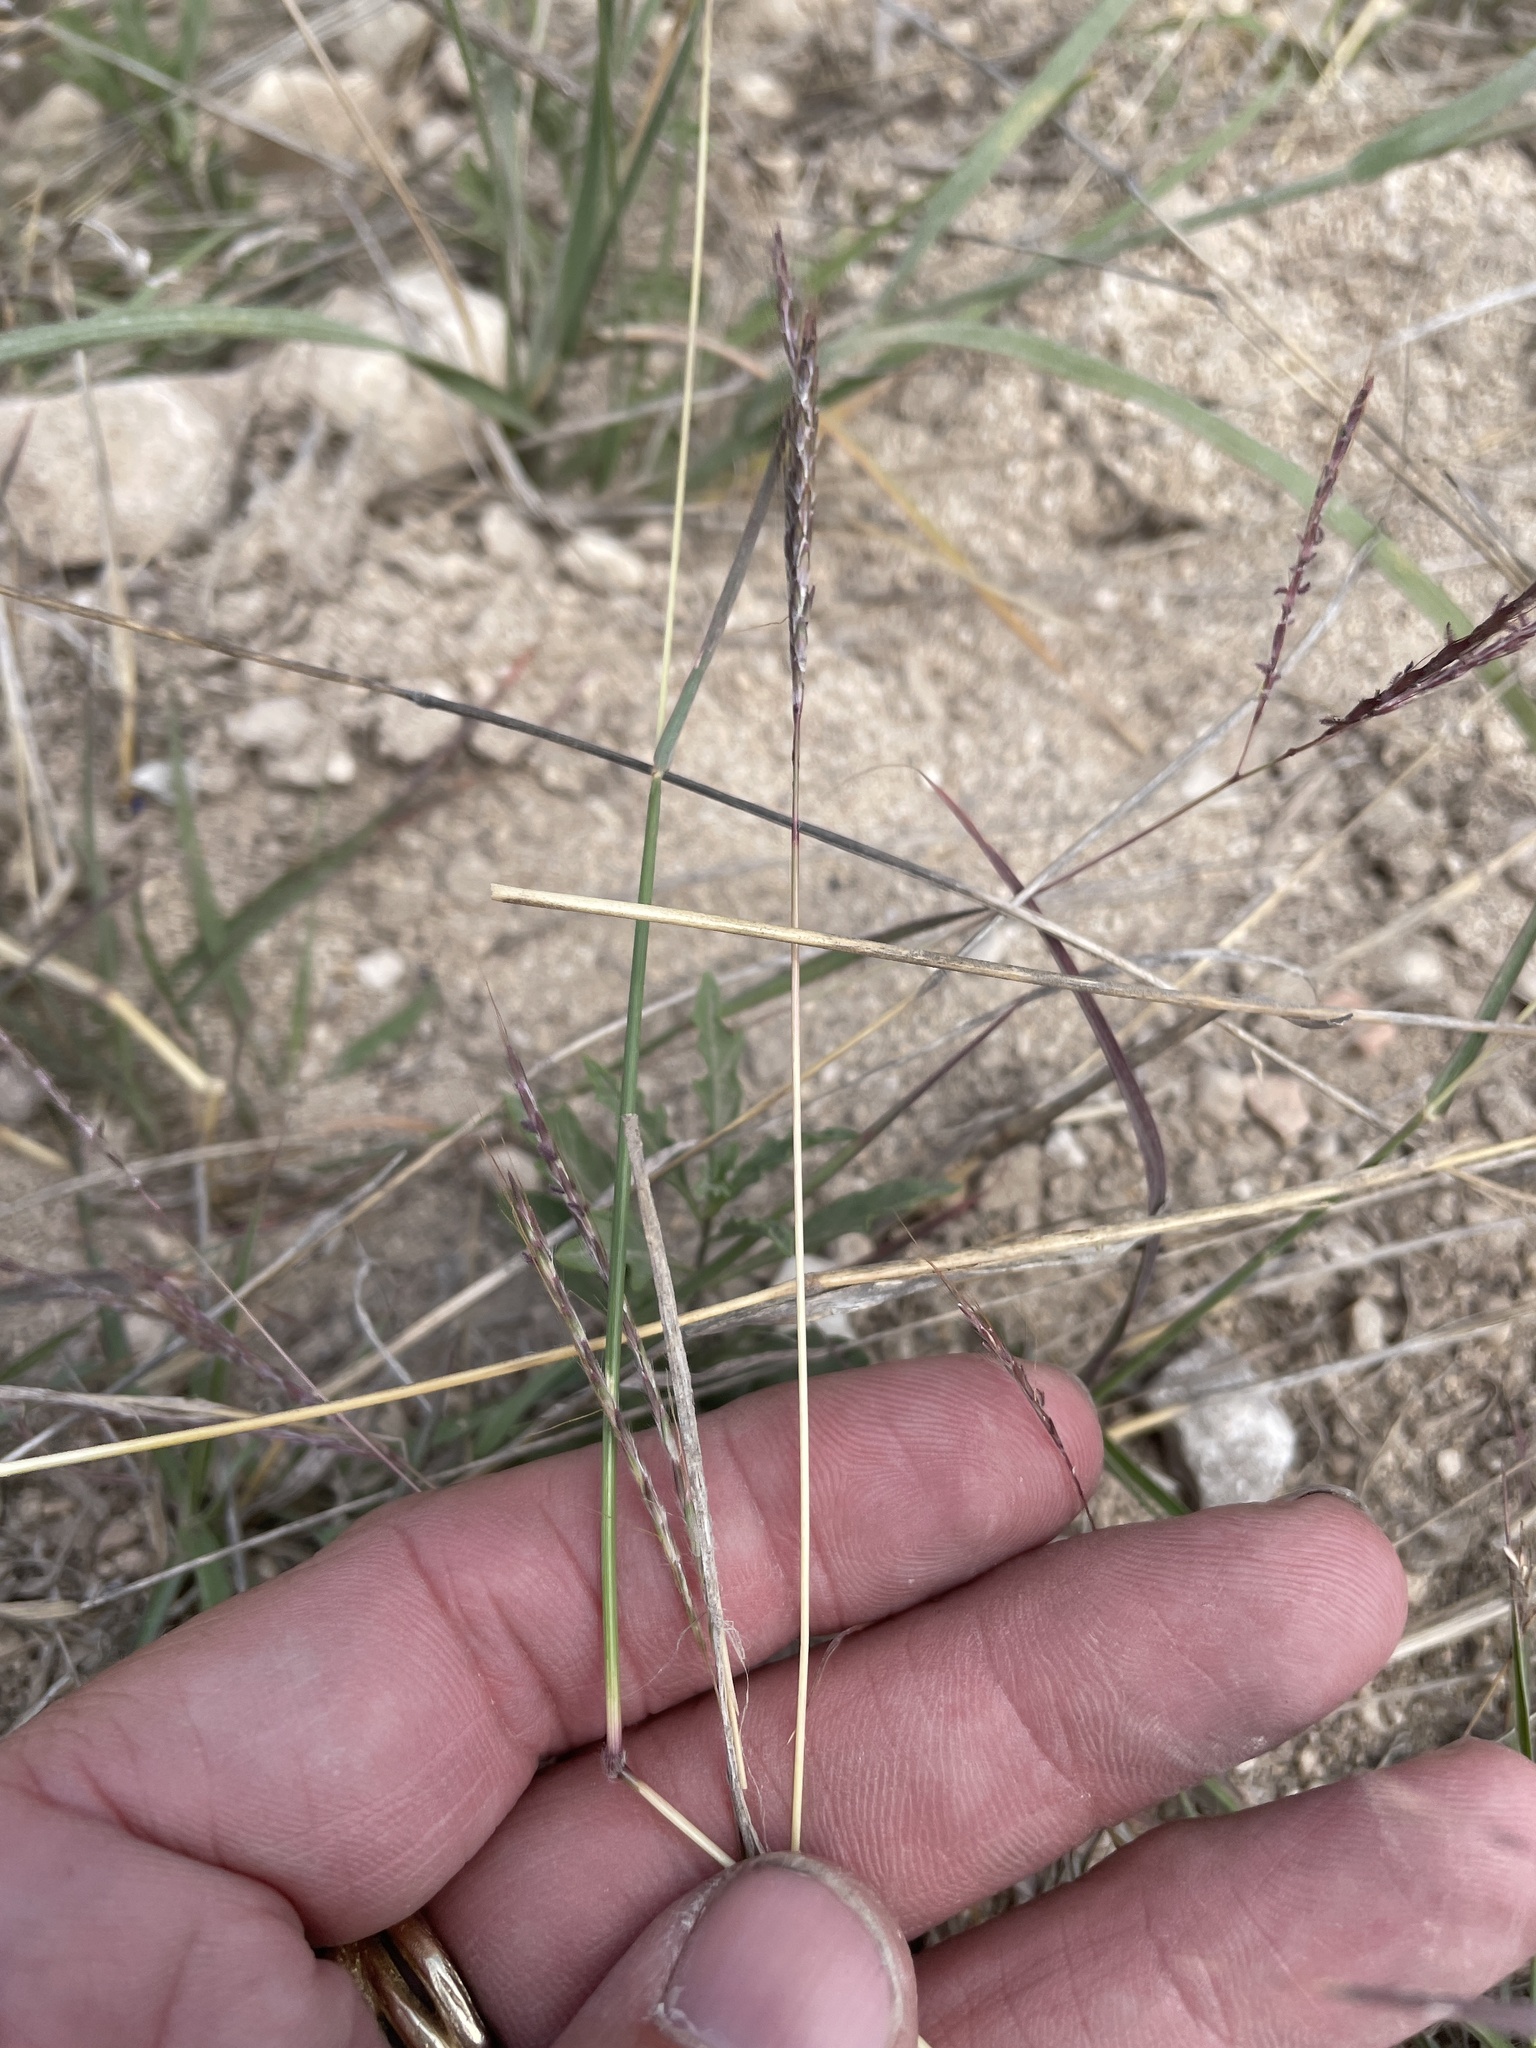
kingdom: Plantae
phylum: Tracheophyta
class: Liliopsida
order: Poales
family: Poaceae
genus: Bothriochloa
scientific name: Bothriochloa ischaemum
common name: Yellow bluestem
